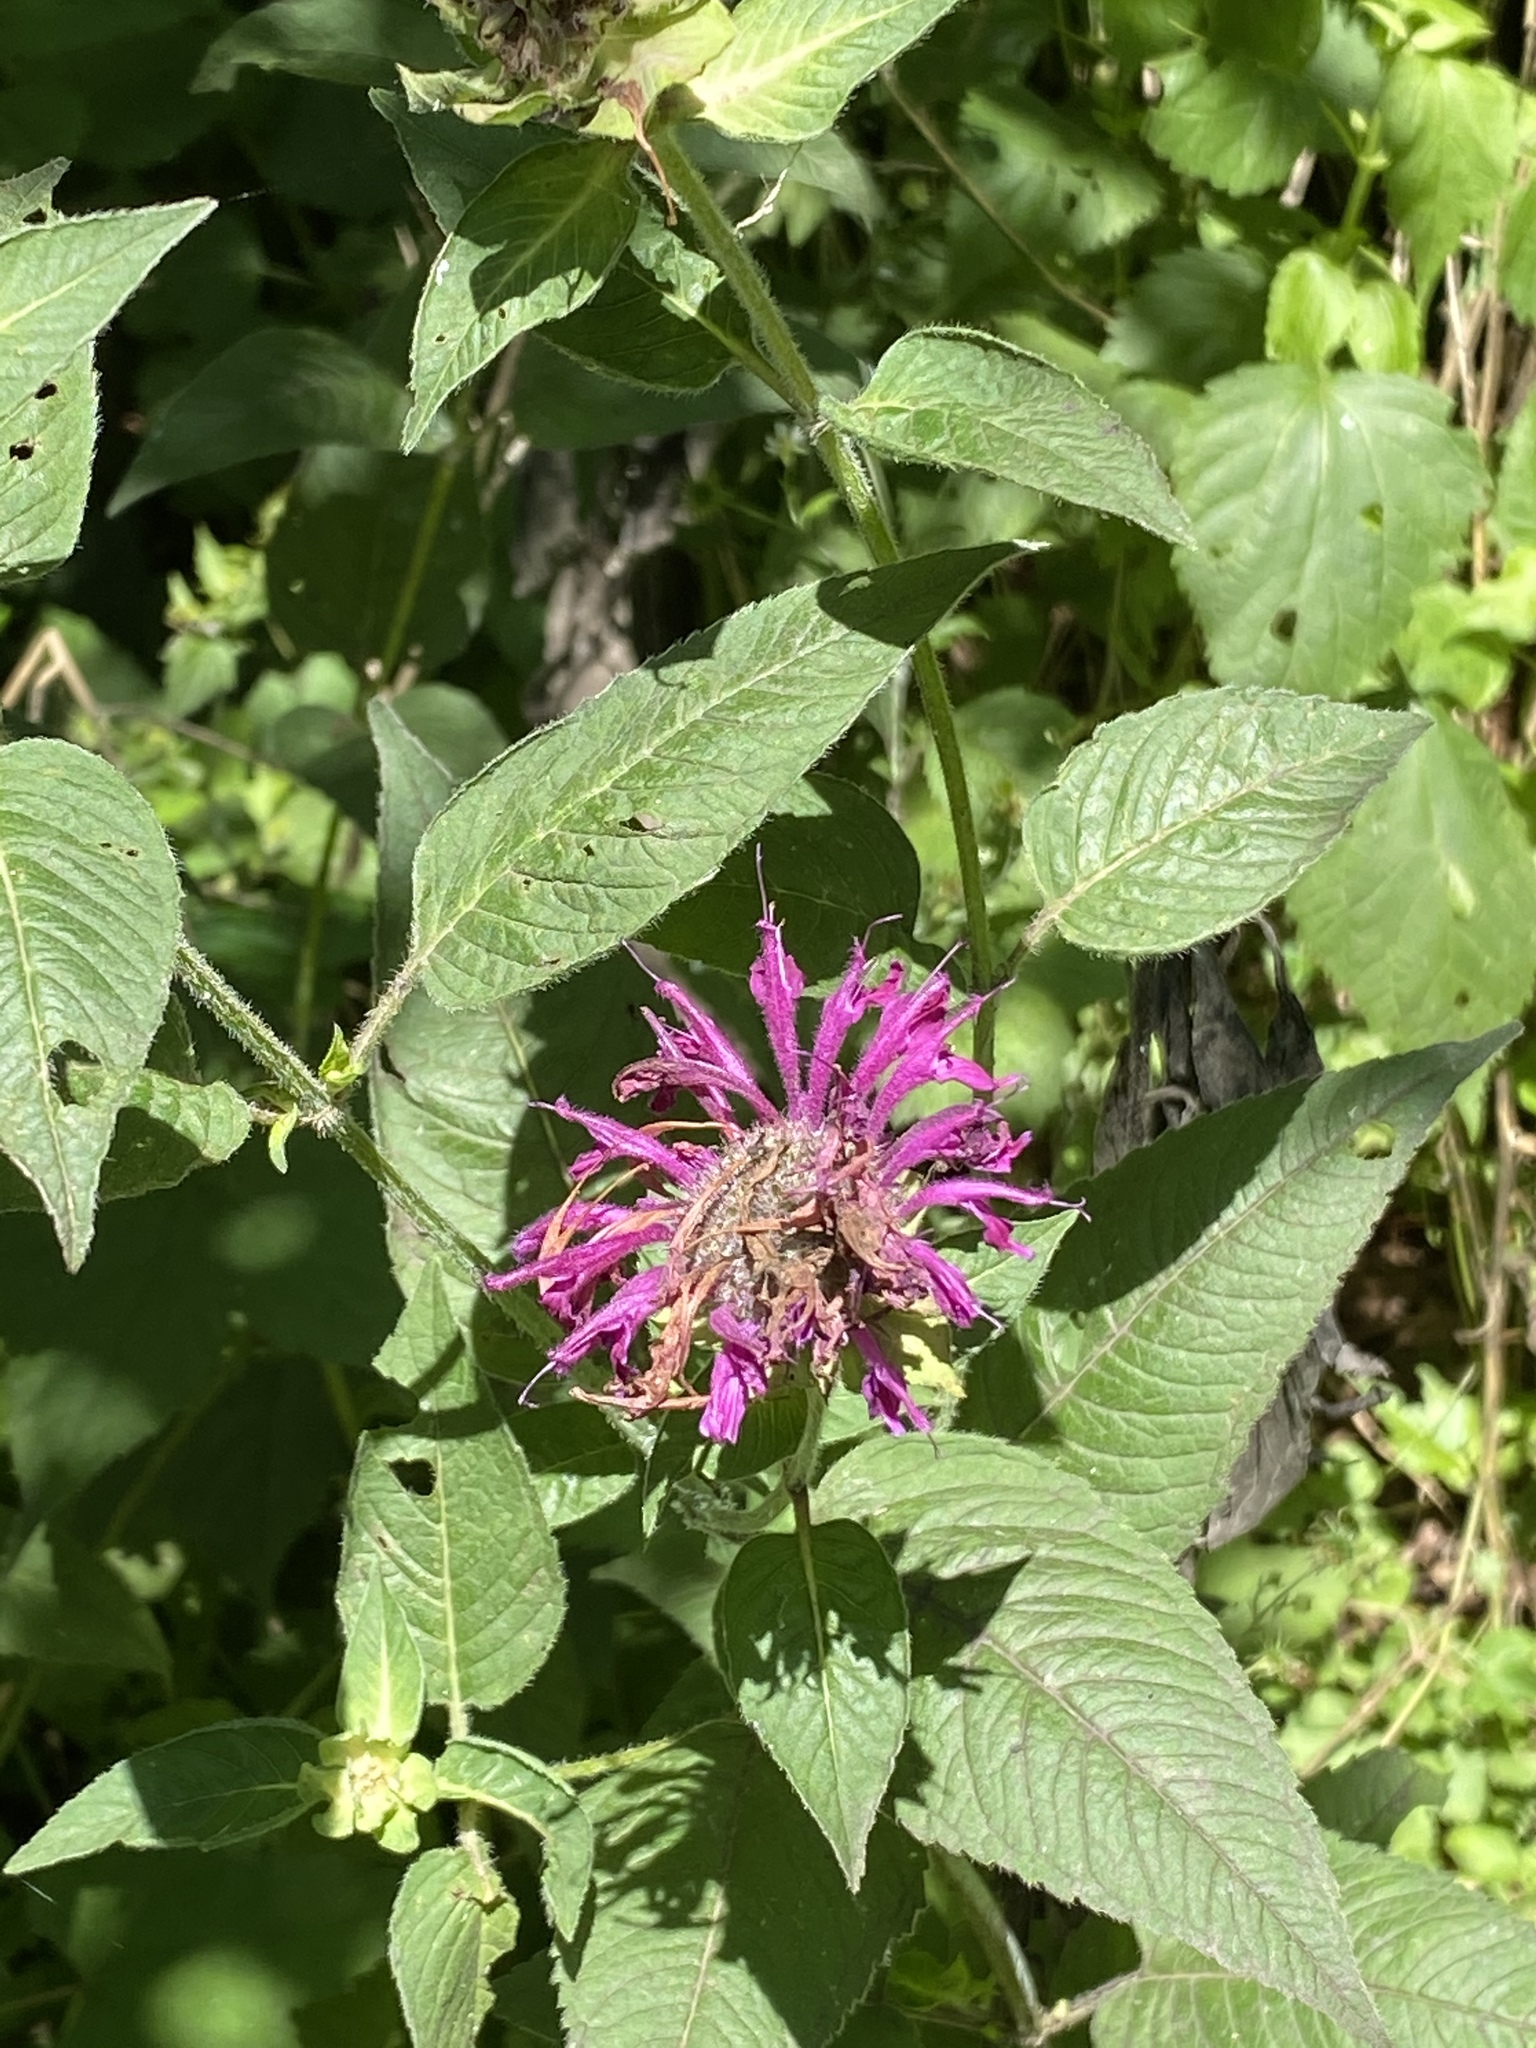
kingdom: Plantae
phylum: Tracheophyta
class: Magnoliopsida
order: Lamiales
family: Lamiaceae
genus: Monarda
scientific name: Monarda fistulosa
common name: Purple beebalm
